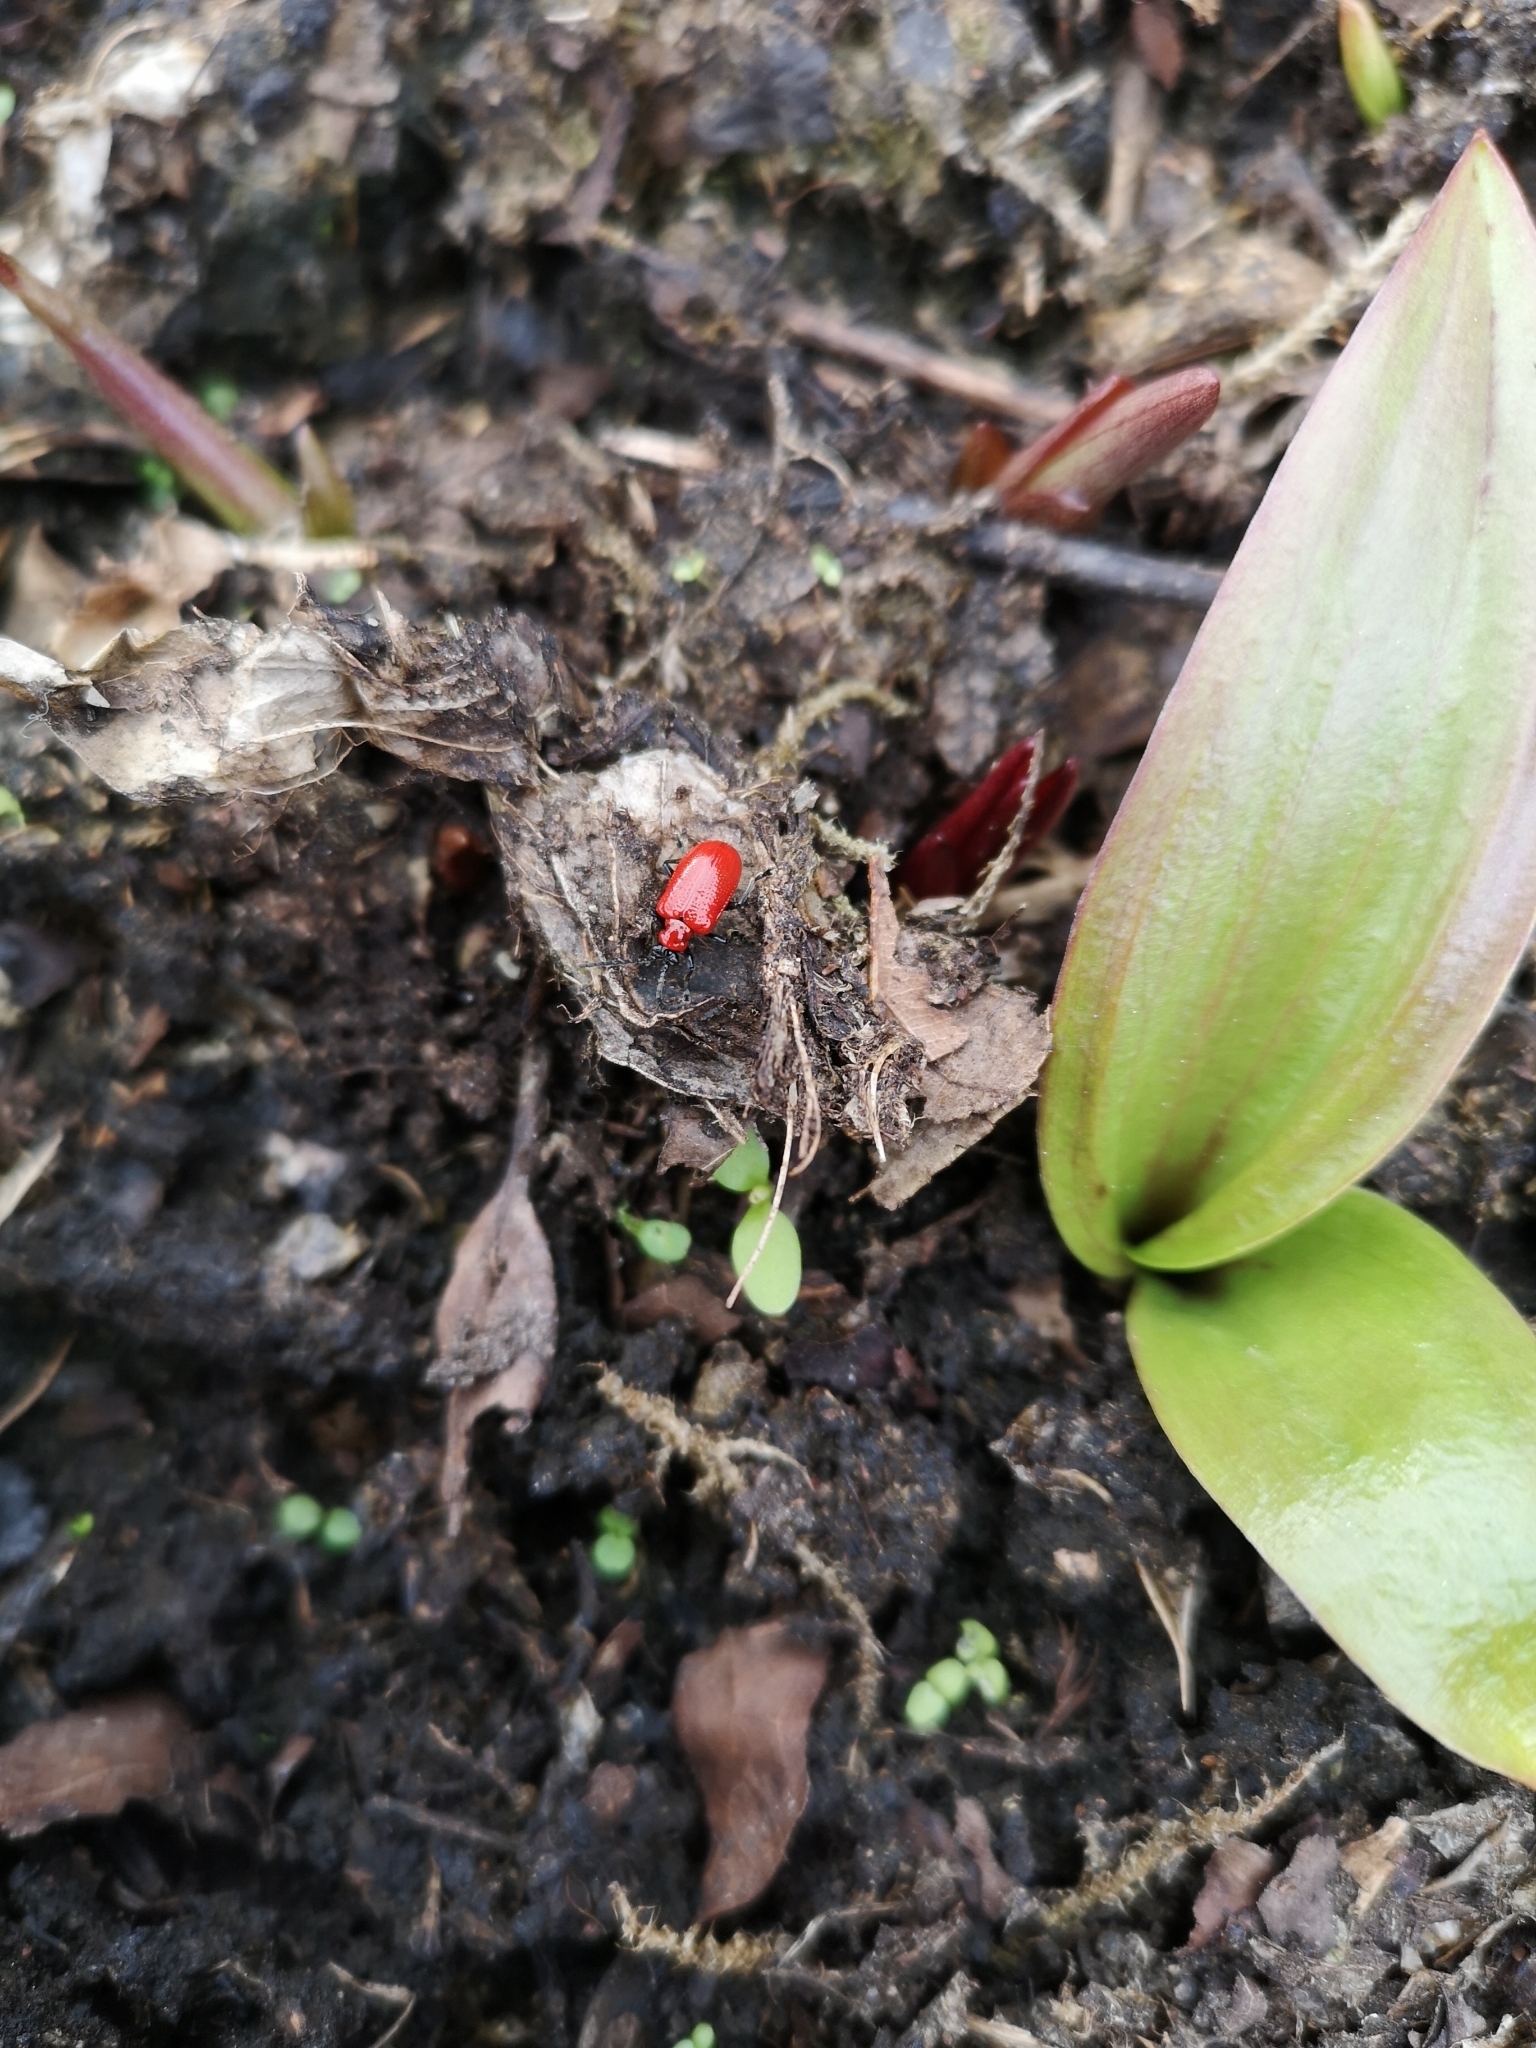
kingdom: Animalia
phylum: Arthropoda
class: Insecta
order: Coleoptera
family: Chrysomelidae
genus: Lilioceris
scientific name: Lilioceris lilii
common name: Lily beetle
